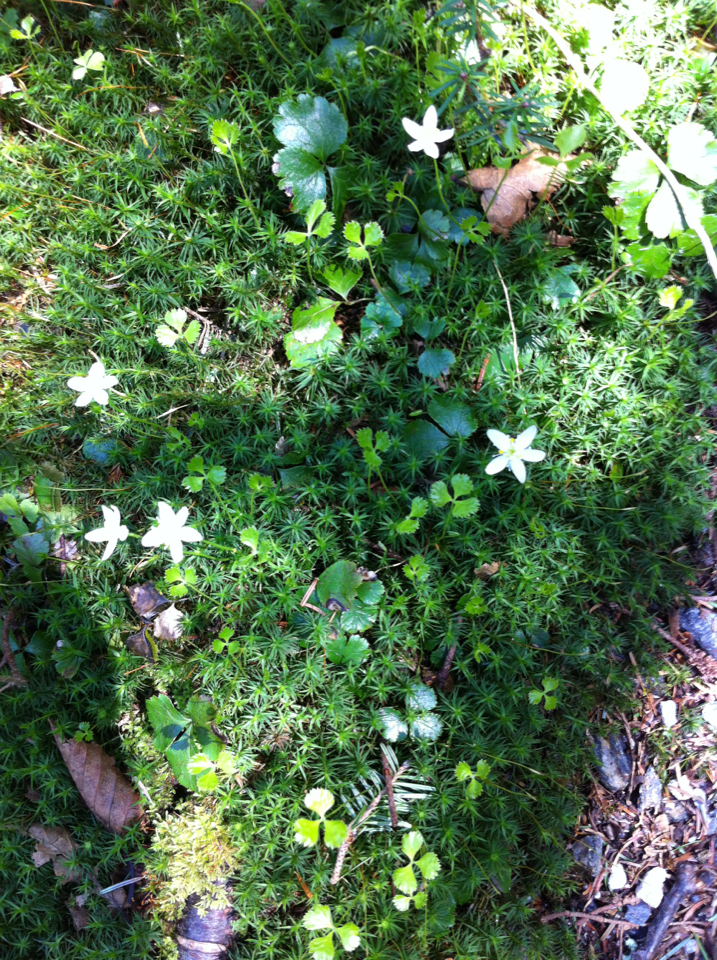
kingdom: Plantae
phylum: Tracheophyta
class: Magnoliopsida
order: Ranunculales
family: Ranunculaceae
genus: Coptis
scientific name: Coptis trifolia
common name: Canker-root
